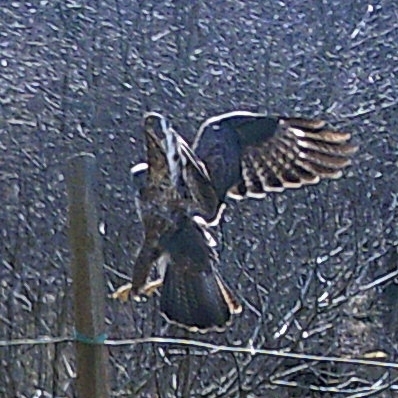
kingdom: Animalia
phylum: Chordata
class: Aves
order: Accipitriformes
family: Accipitridae
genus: Buteo
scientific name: Buteo buteo
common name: Common buzzard
